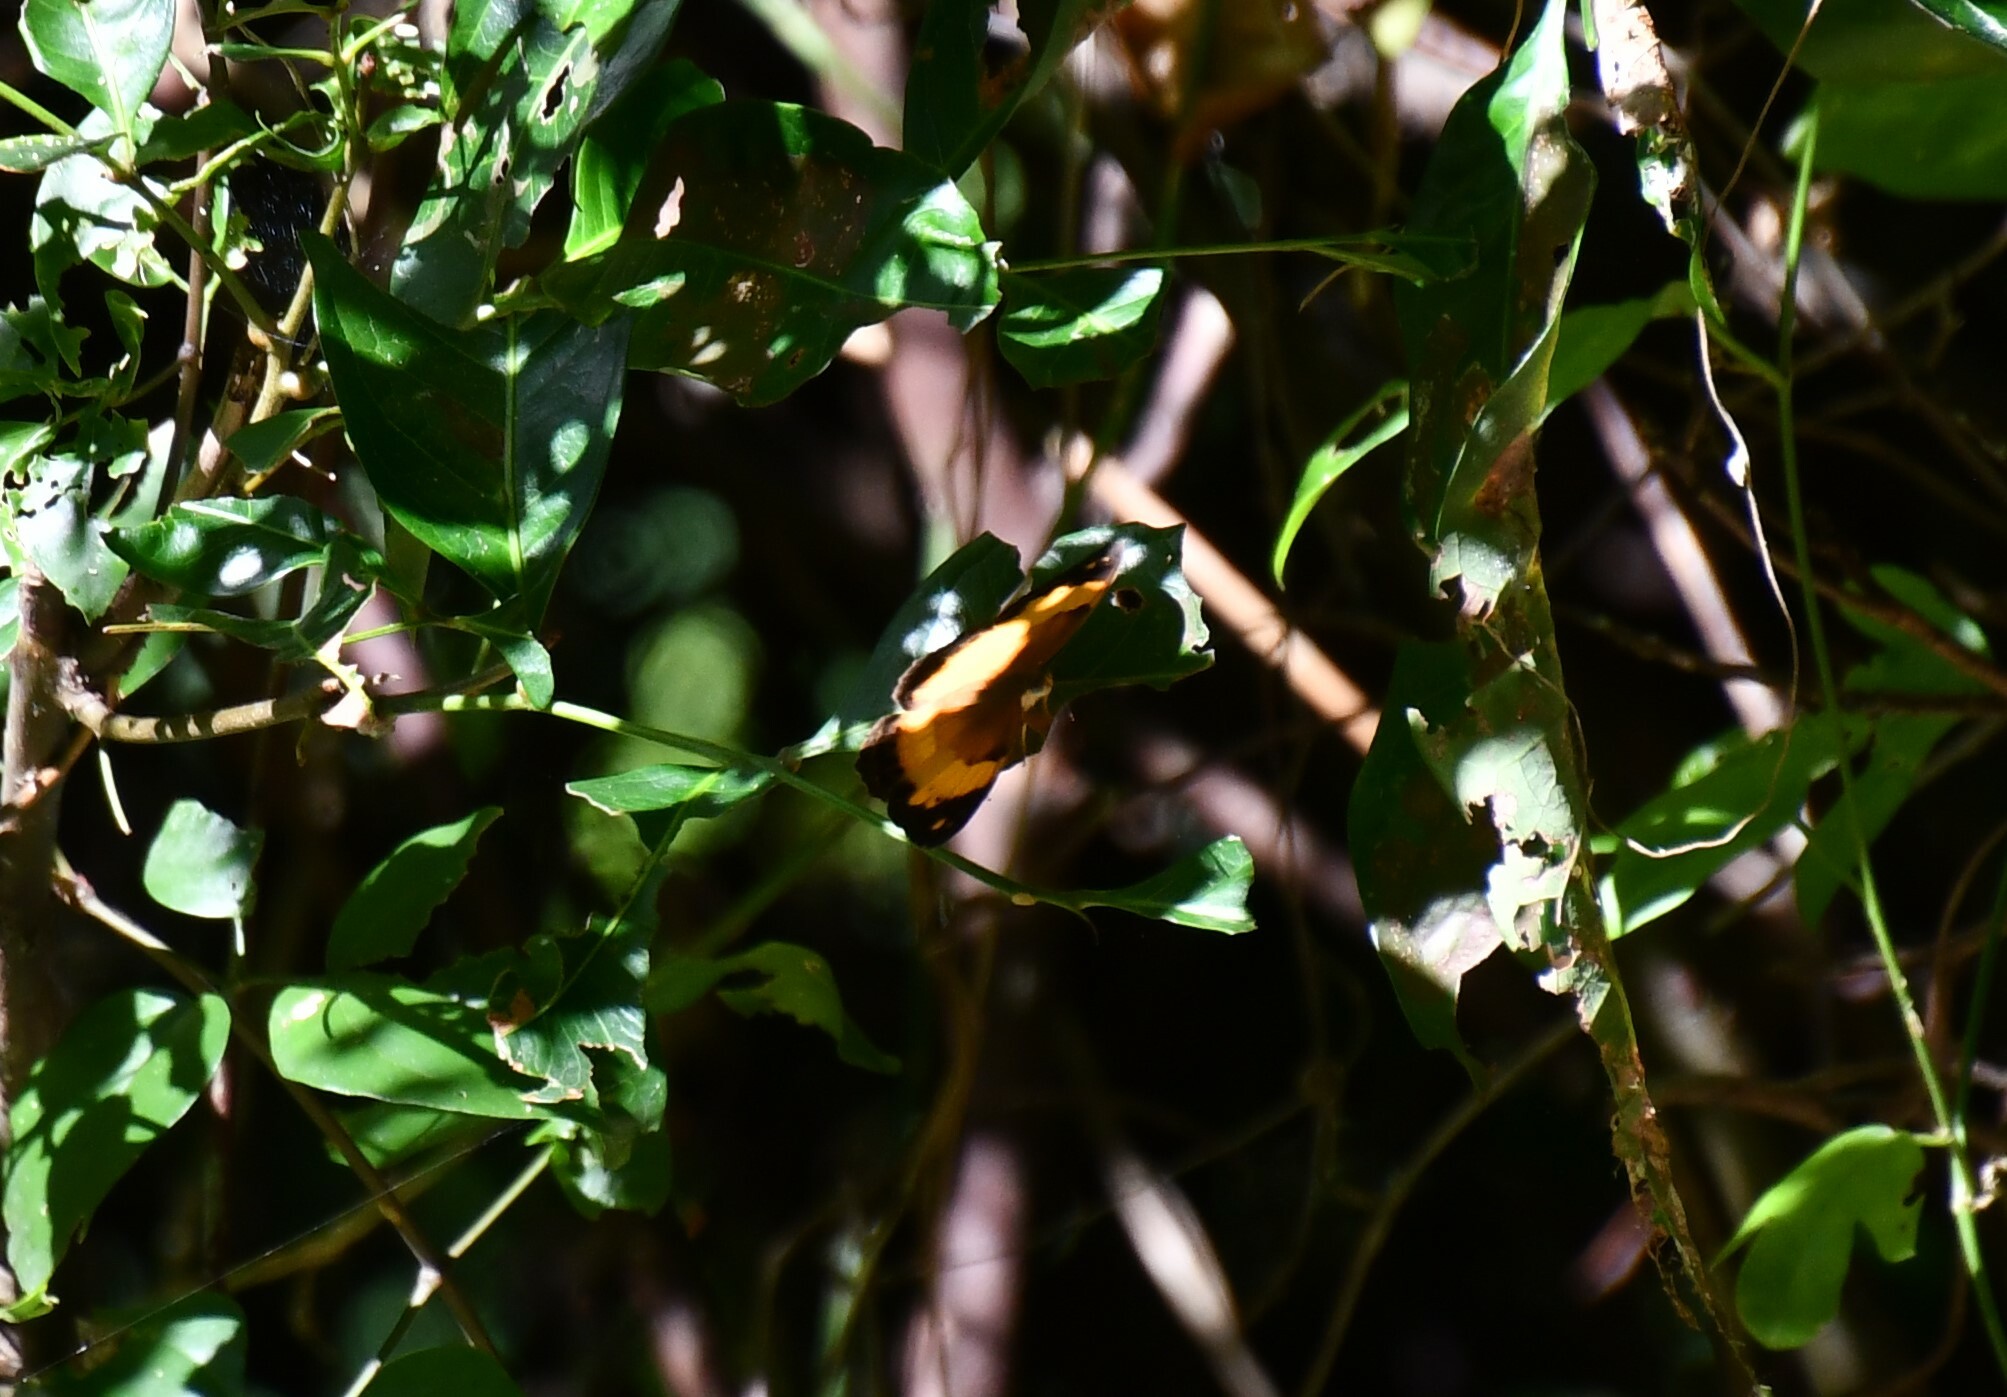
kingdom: Animalia
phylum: Arthropoda
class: Insecta
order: Lepidoptera
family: Nymphalidae
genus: Cupha
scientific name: Cupha prosope
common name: Bordered rustic
